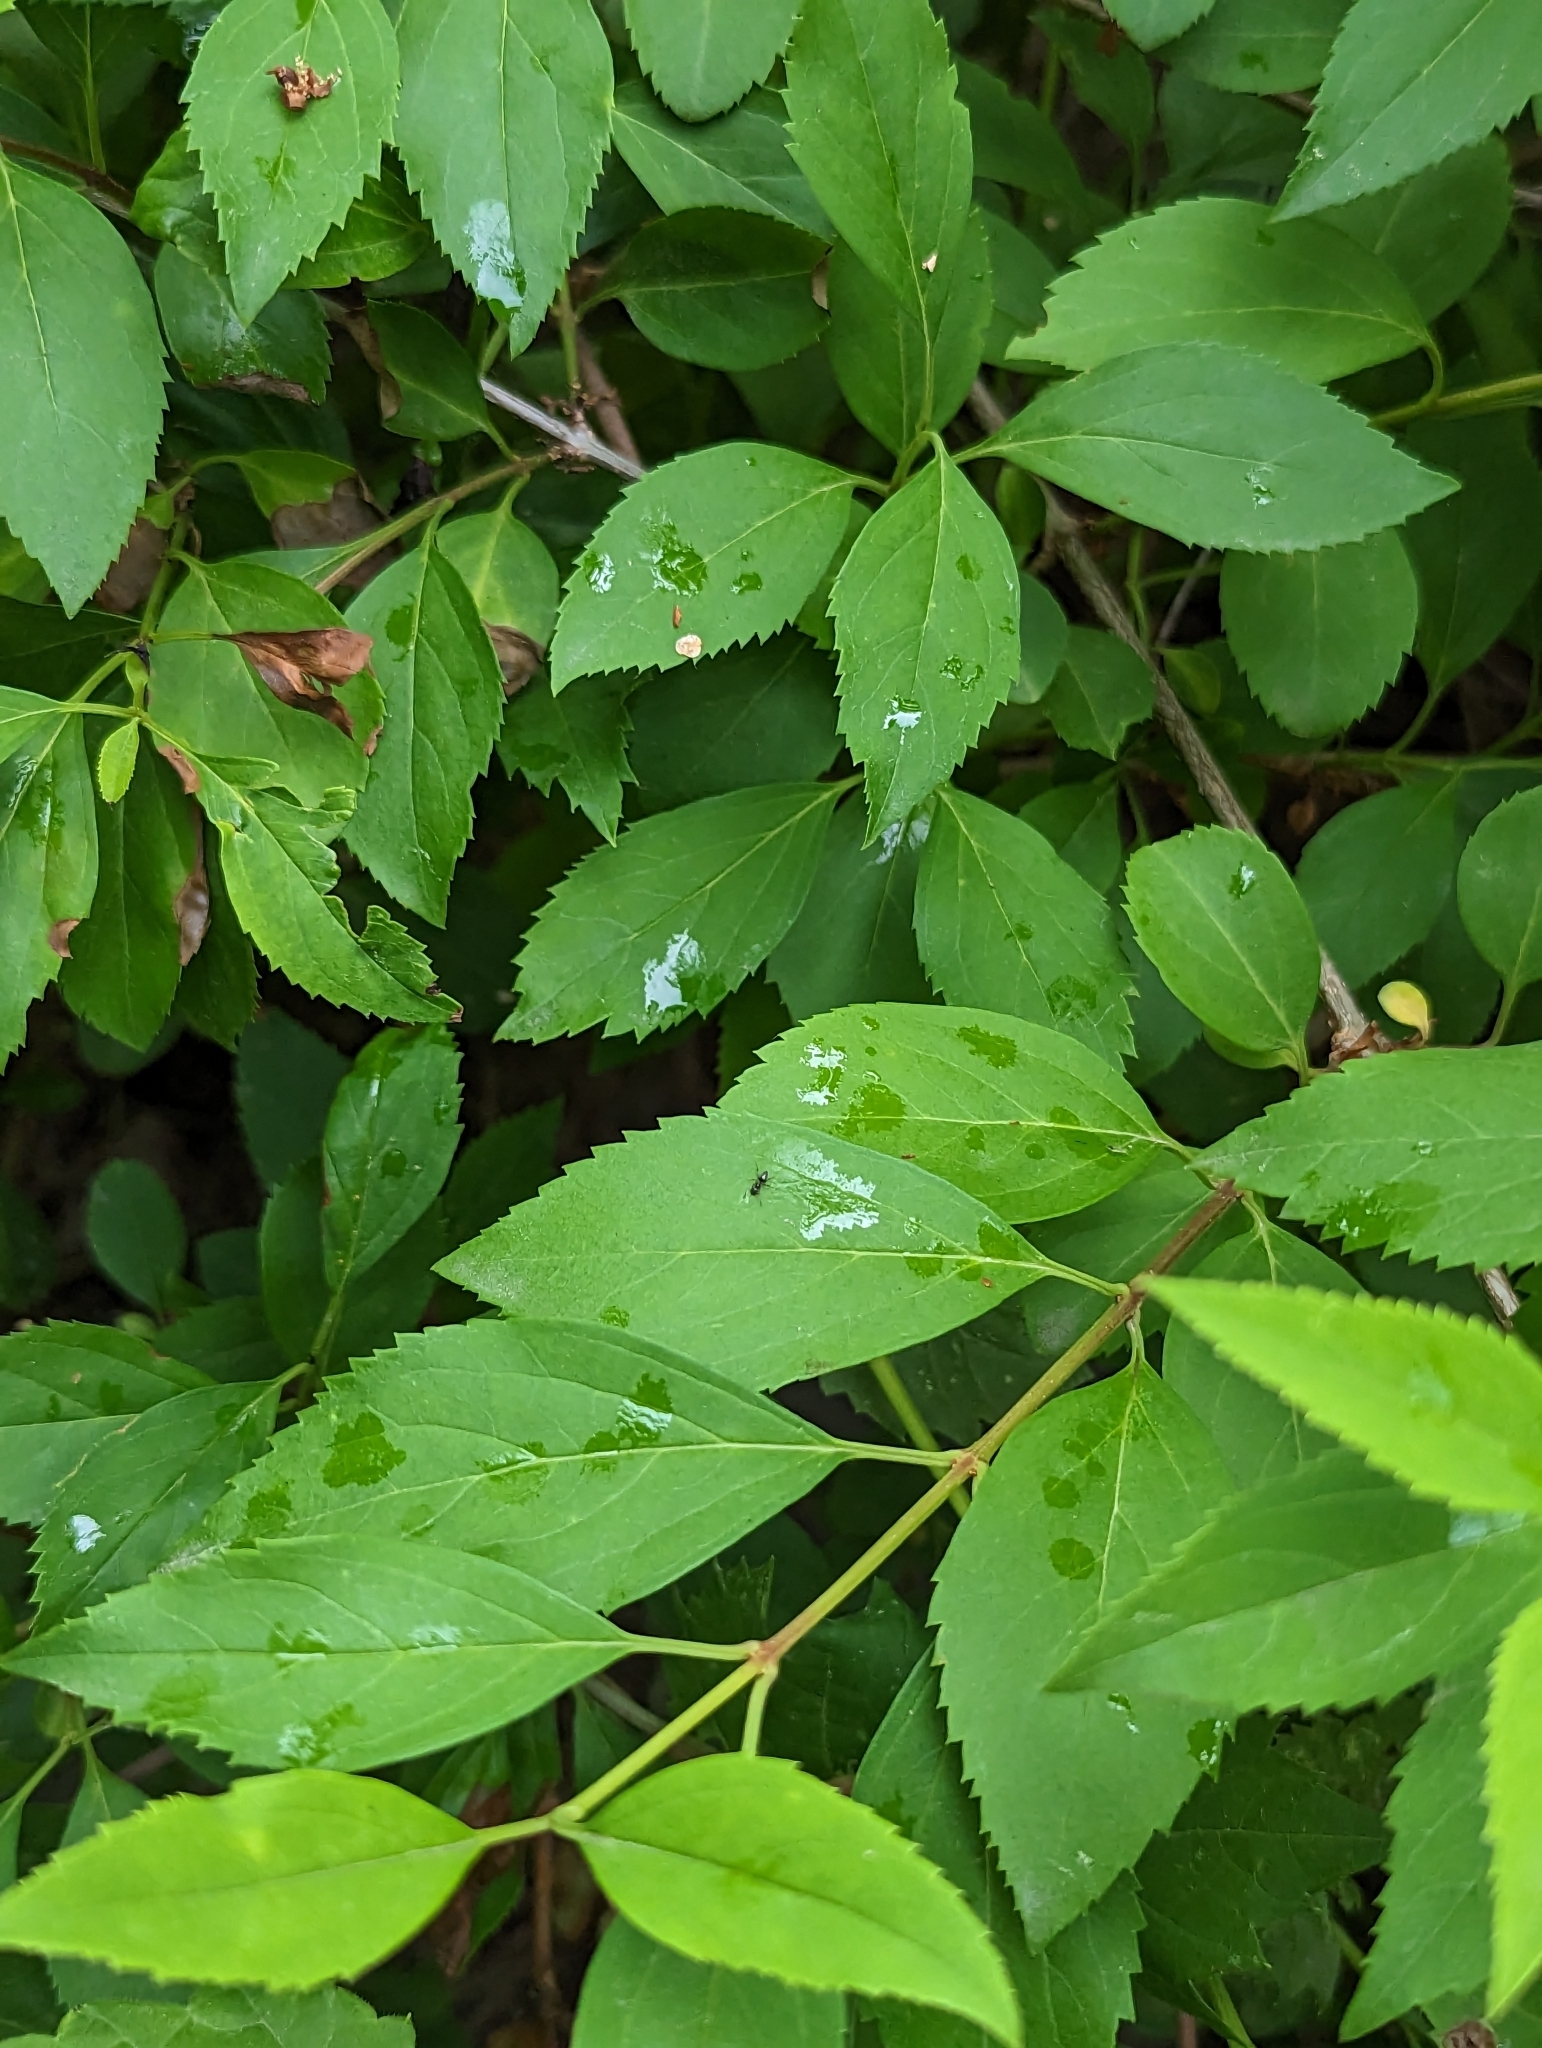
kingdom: Animalia
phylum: Arthropoda
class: Insecta
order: Hymenoptera
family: Formicidae
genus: Tapinoma
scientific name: Tapinoma sessile
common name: Odorous house ant
